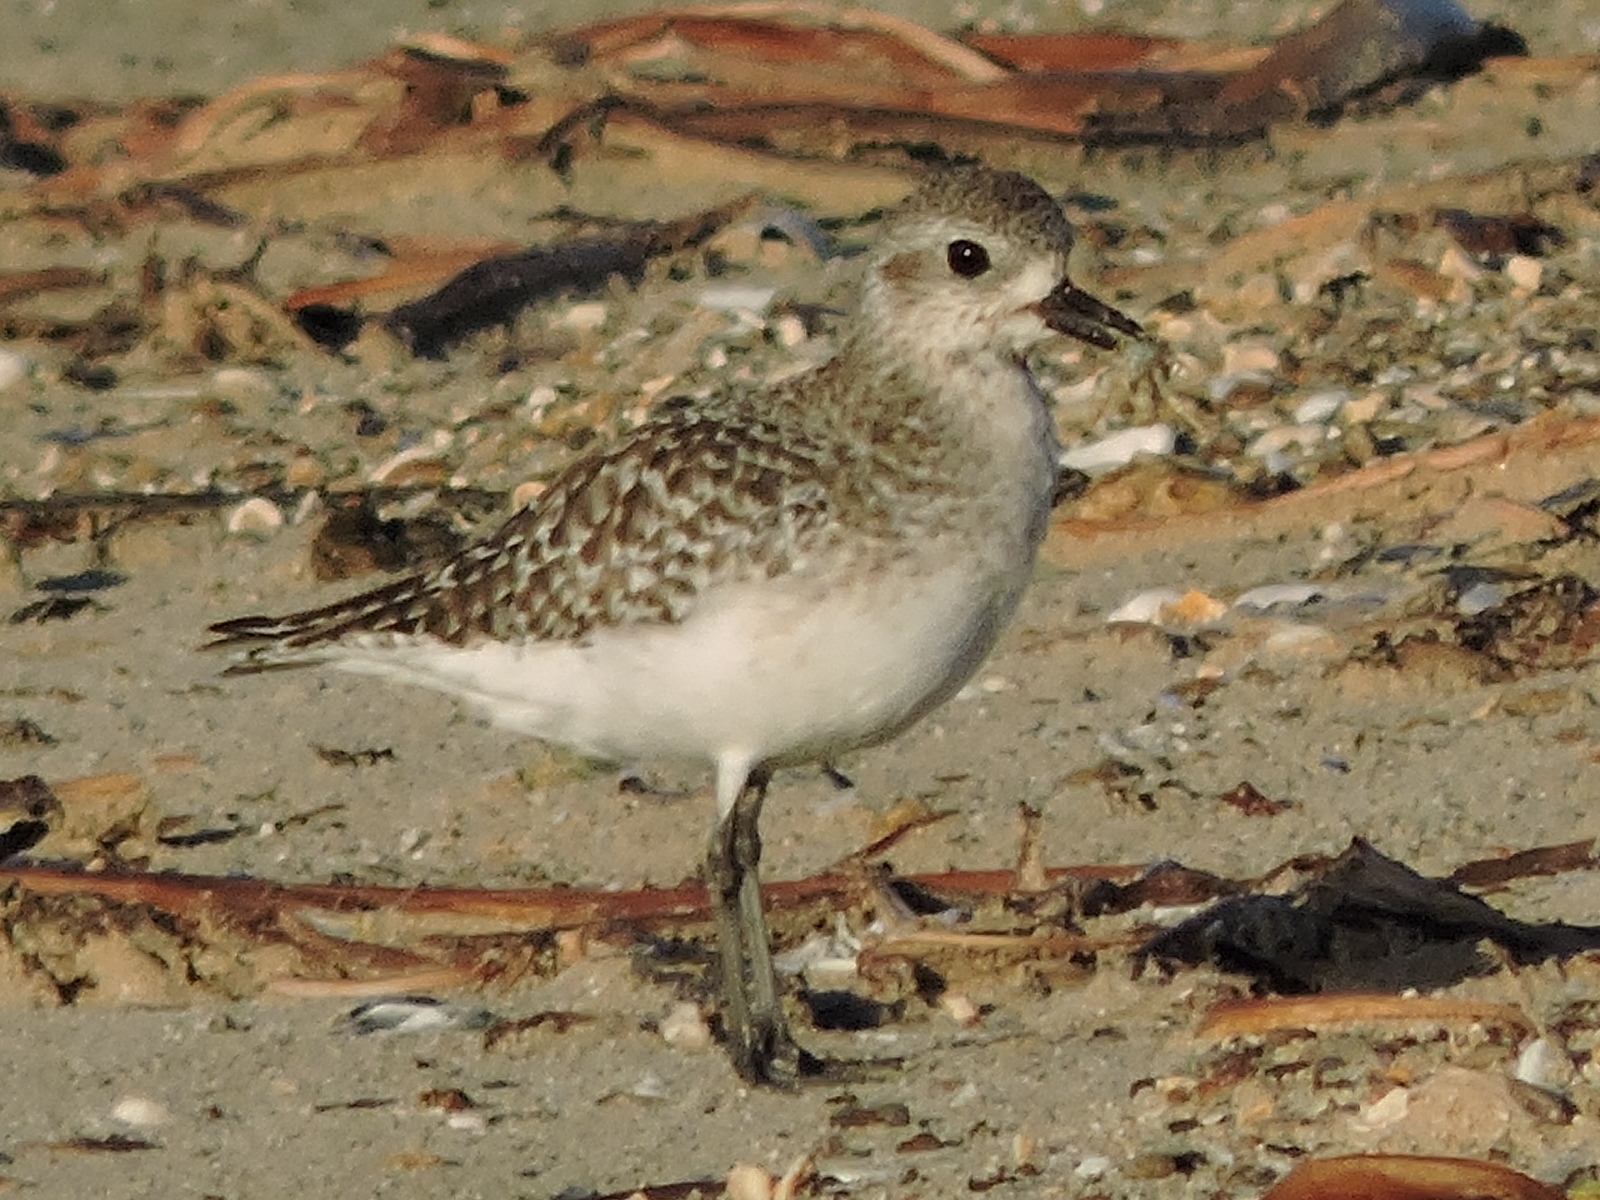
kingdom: Animalia
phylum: Chordata
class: Aves
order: Charadriiformes
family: Charadriidae
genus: Pluvialis
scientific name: Pluvialis squatarola
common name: Grey plover
